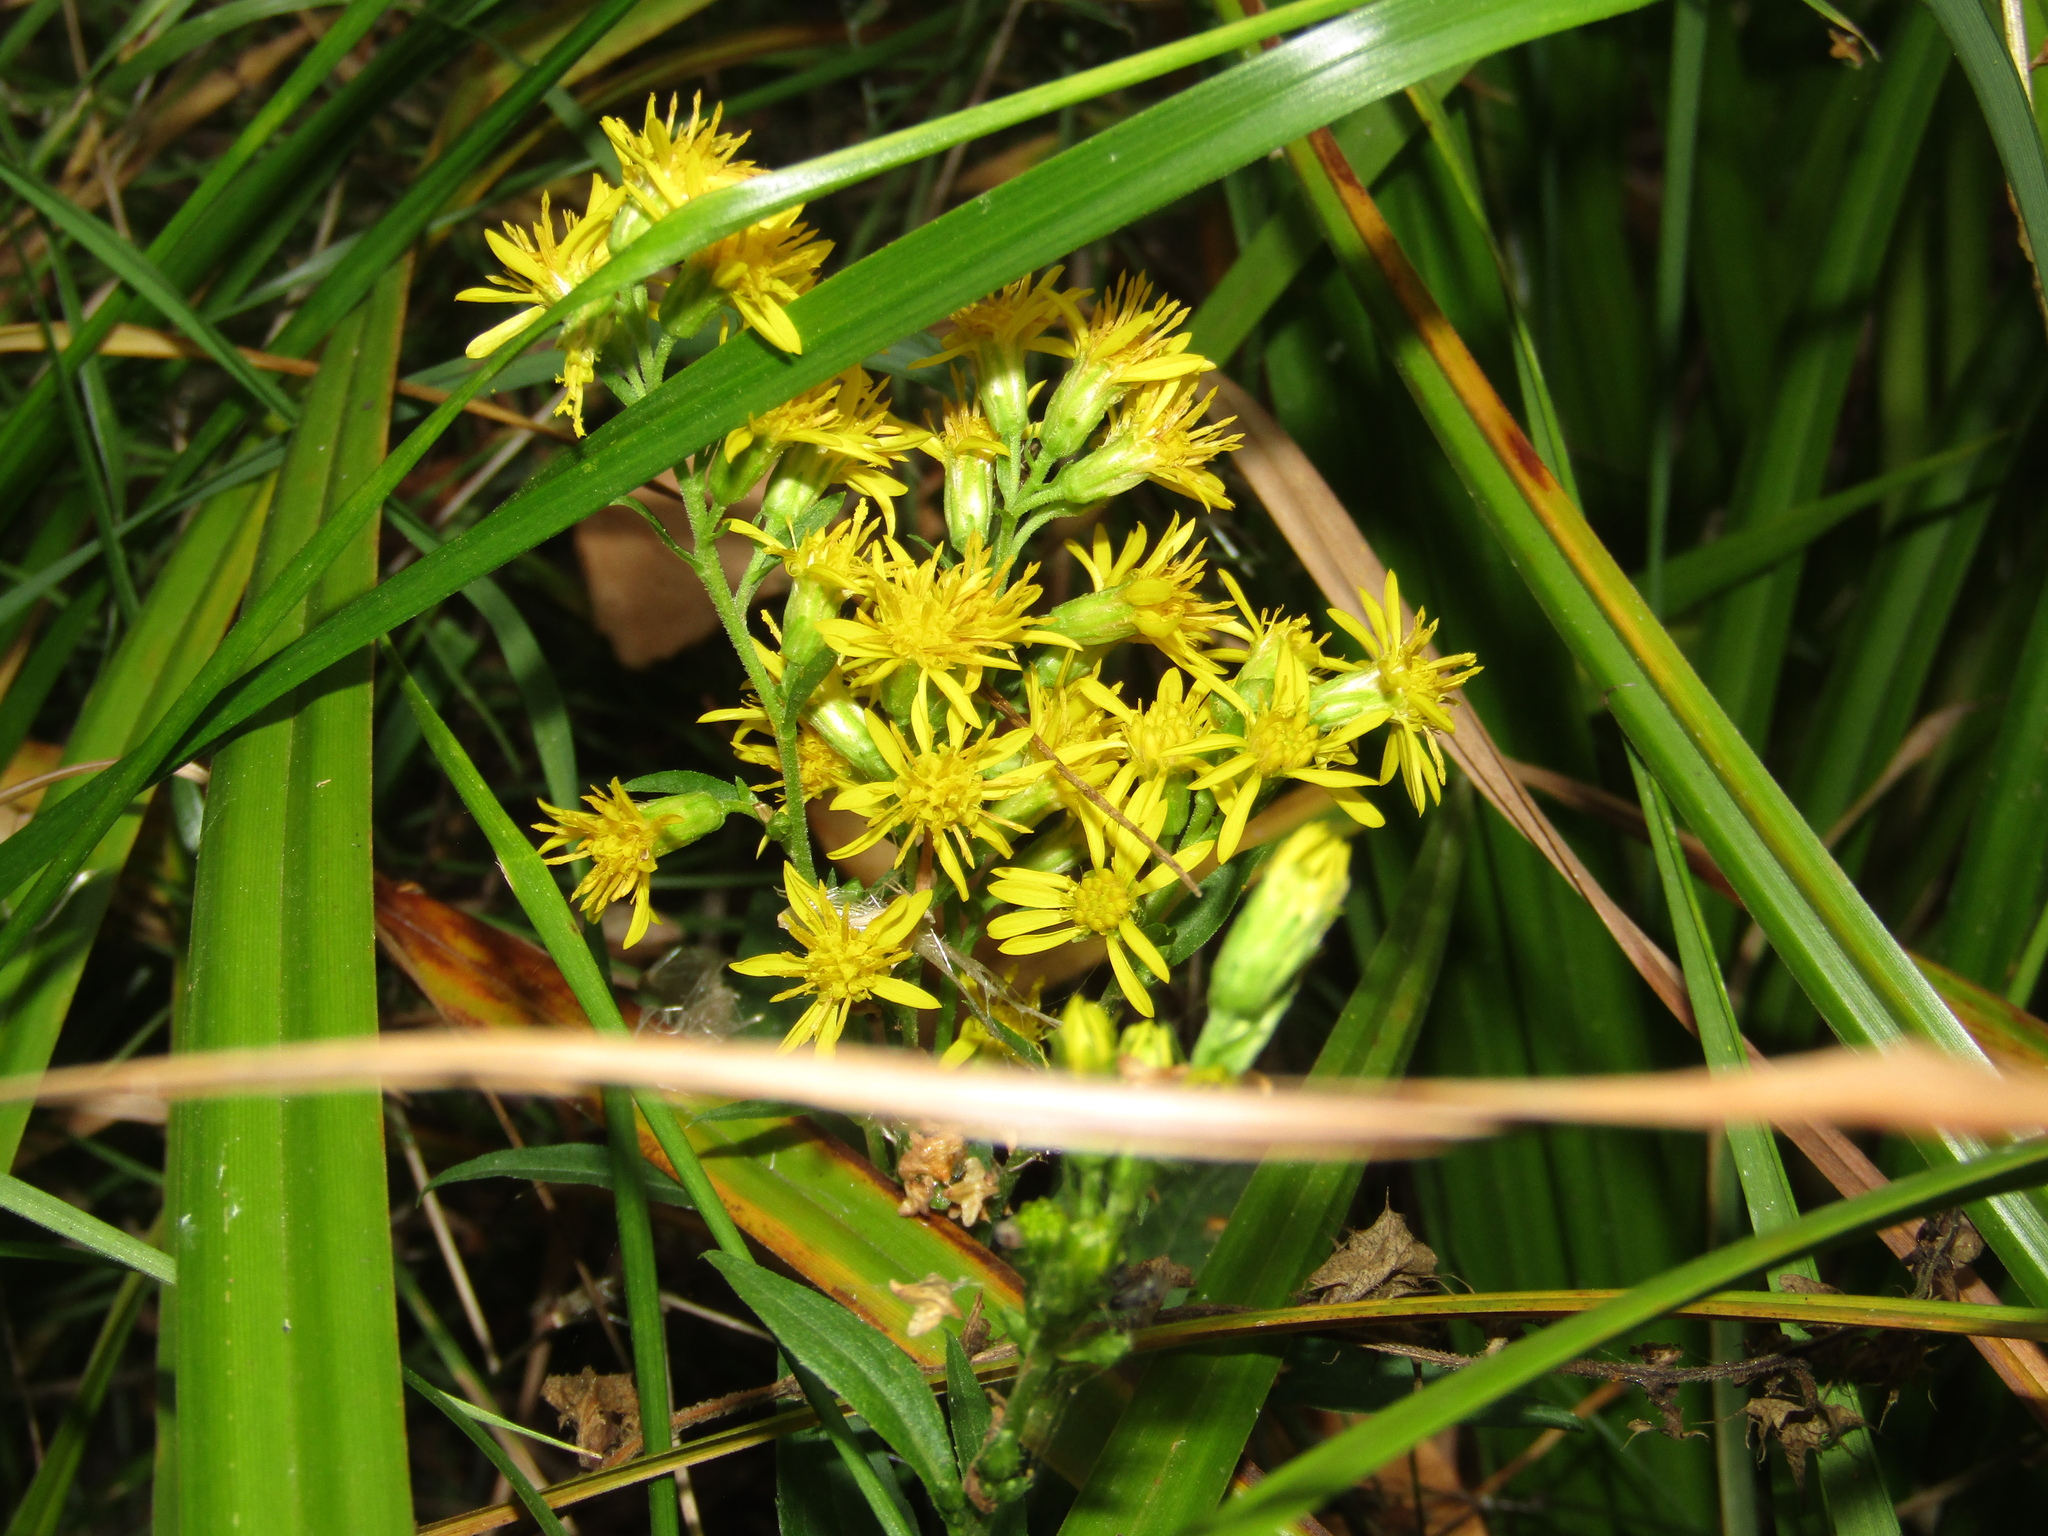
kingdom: Plantae
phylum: Tracheophyta
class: Magnoliopsida
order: Asterales
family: Asteraceae
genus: Solidago
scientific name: Solidago virgaurea
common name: Goldenrod
